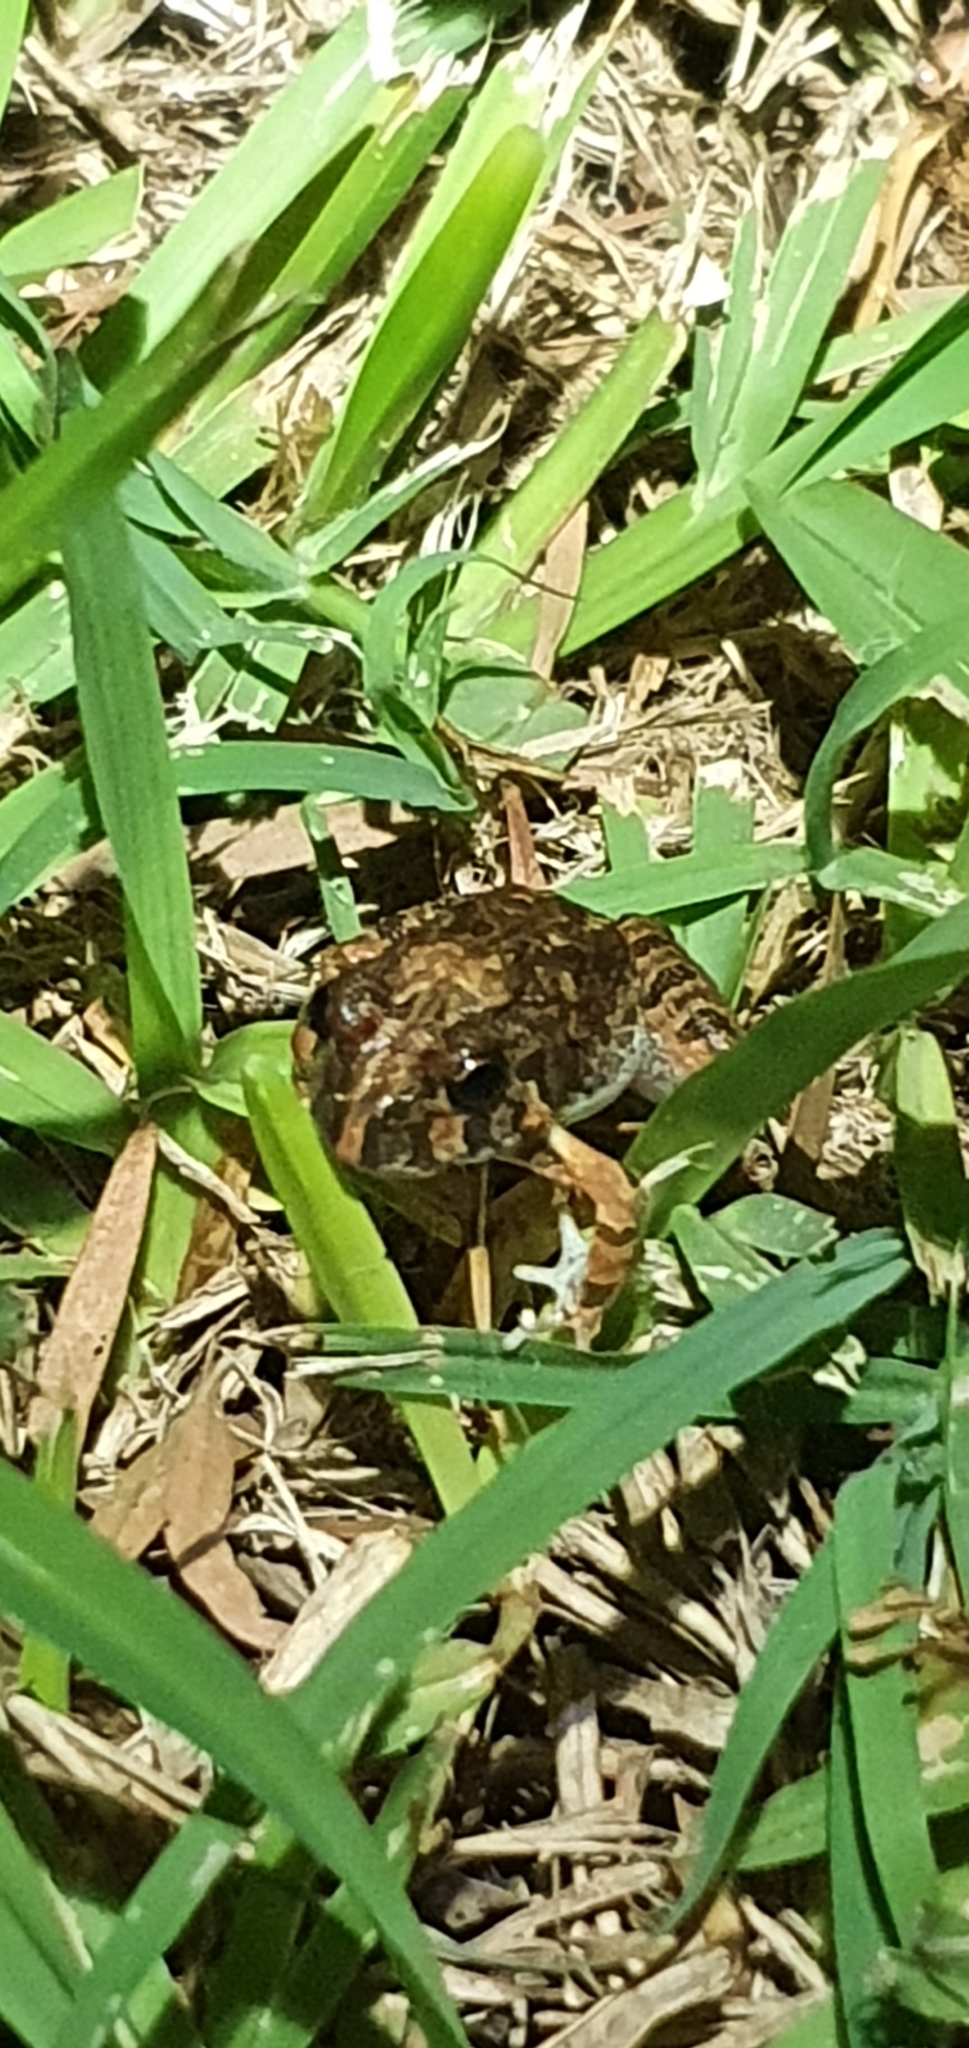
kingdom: Animalia
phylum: Chordata
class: Amphibia
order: Anura
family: Limnodynastidae
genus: Platyplectrum
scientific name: Platyplectrum ornatum
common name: Ornate burrowing frog
